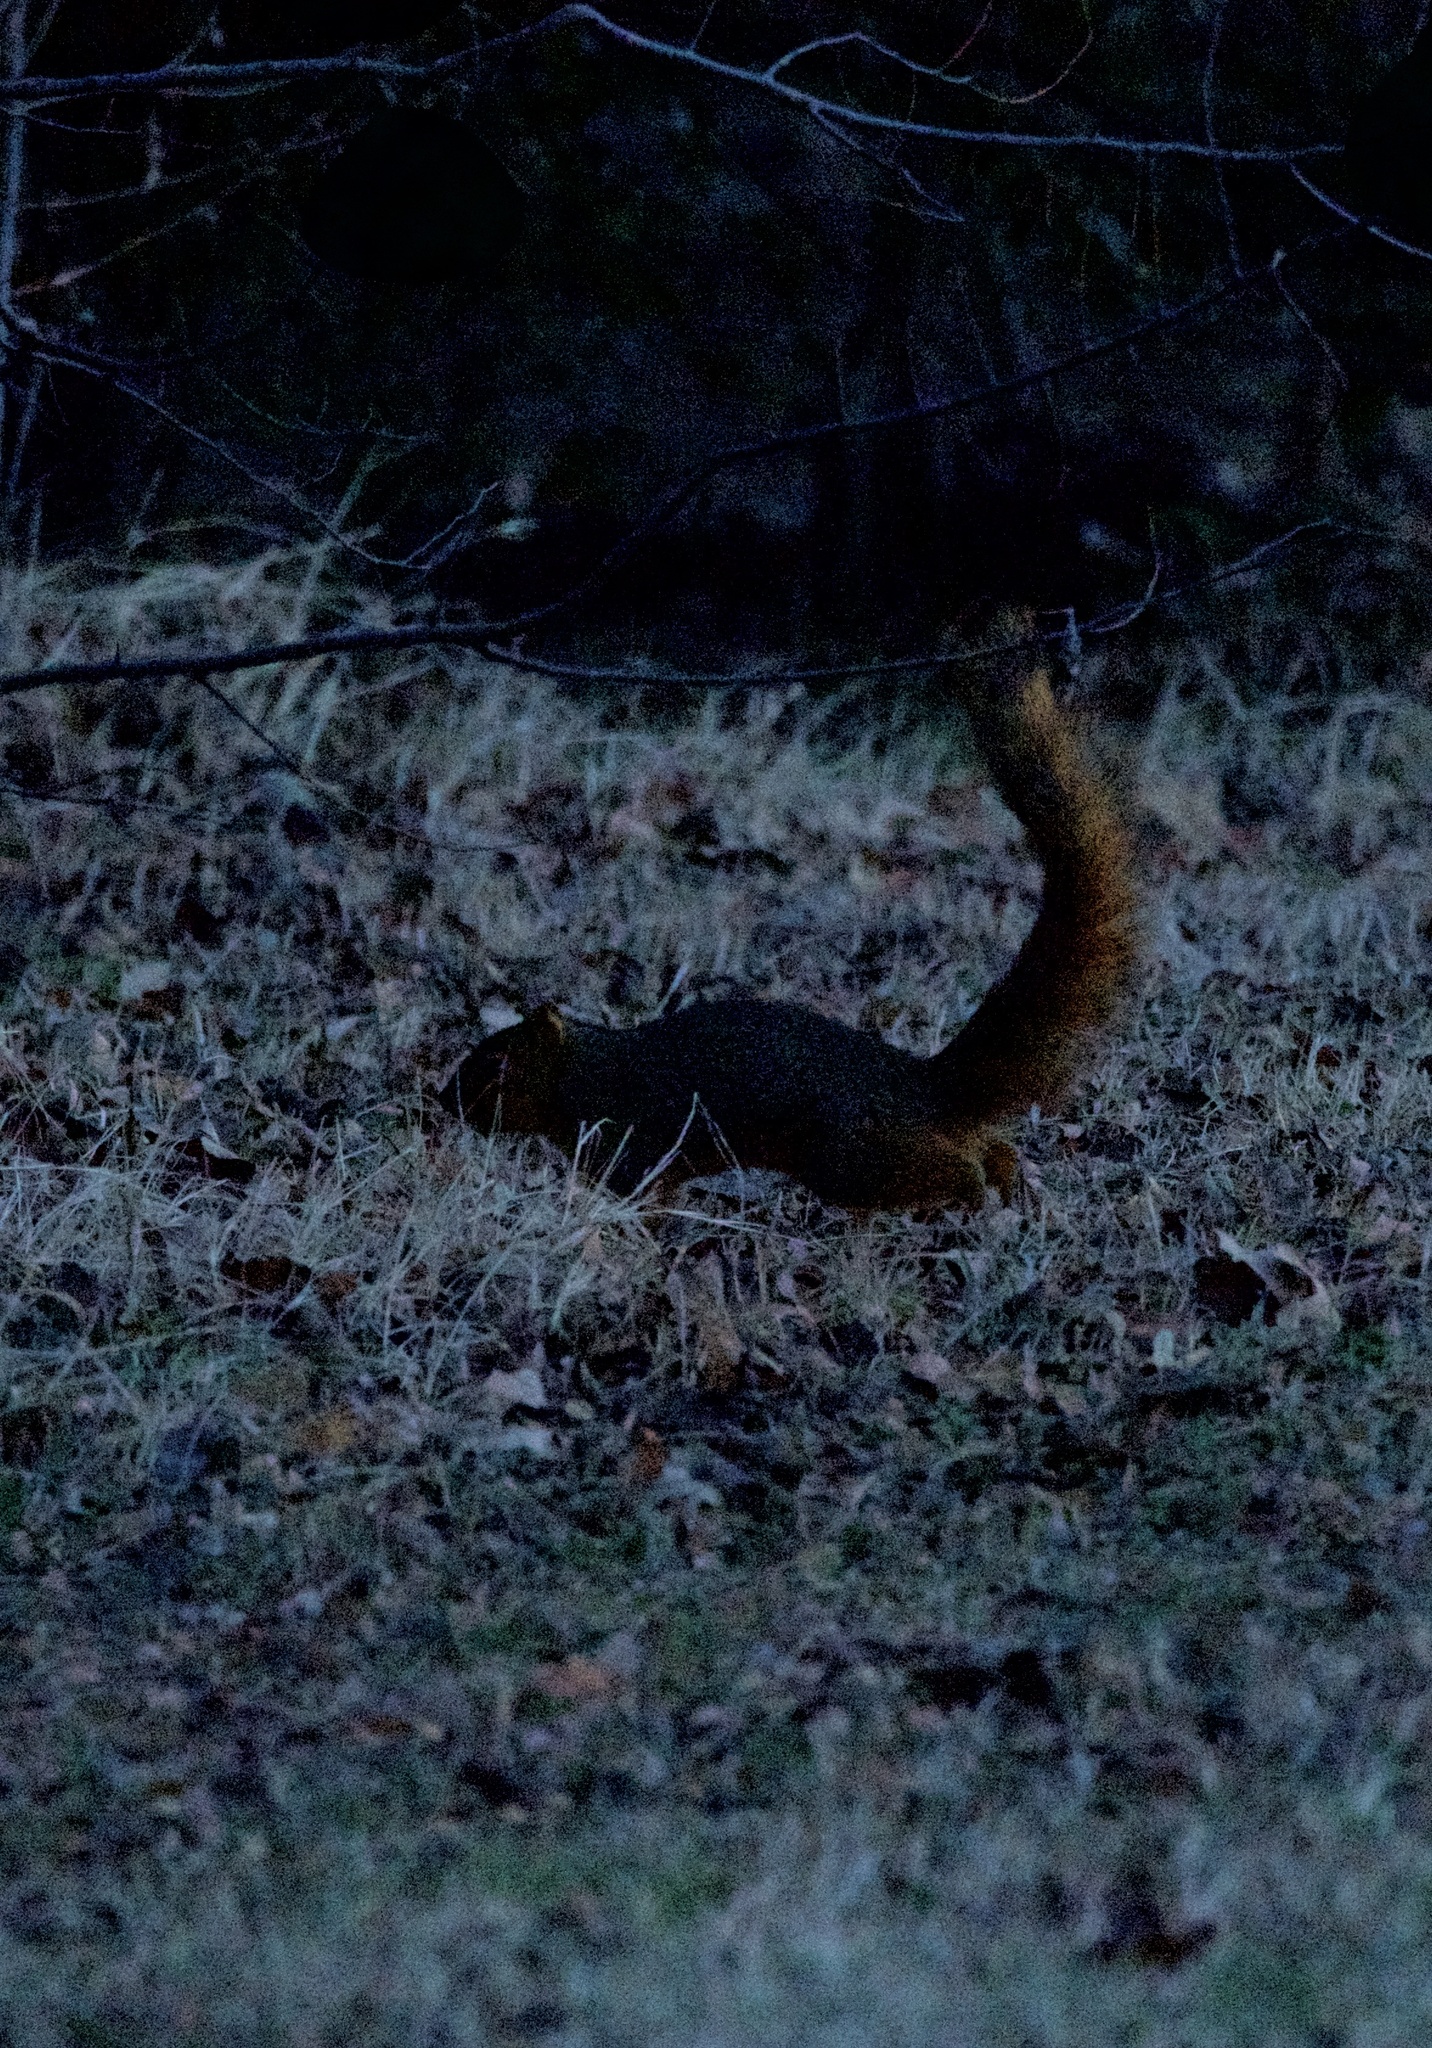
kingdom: Animalia
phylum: Chordata
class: Mammalia
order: Rodentia
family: Sciuridae
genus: Sciurus
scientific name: Sciurus niger
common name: Fox squirrel
